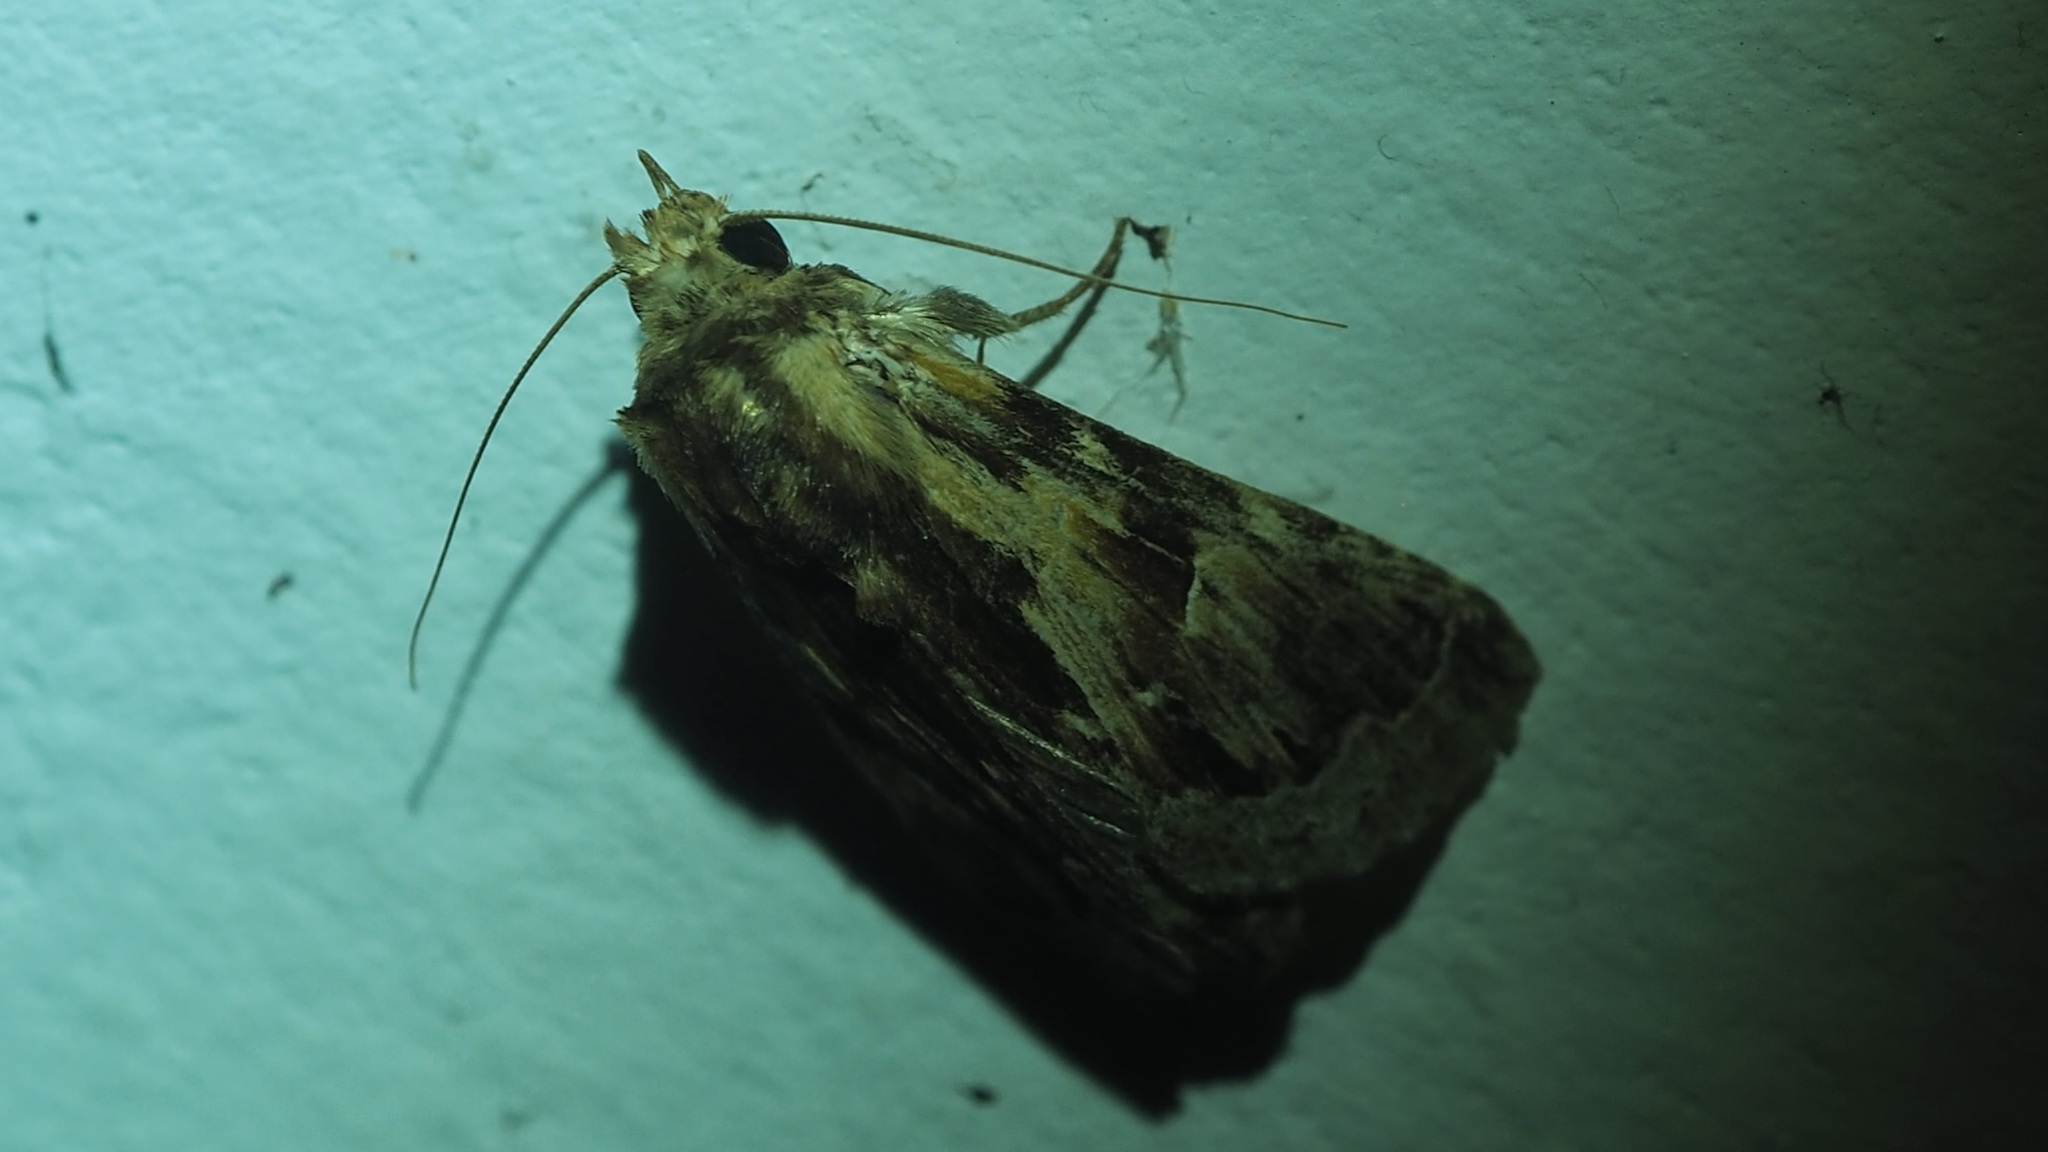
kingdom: Animalia
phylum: Arthropoda
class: Insecta
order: Lepidoptera
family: Notodontidae
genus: Lemairegisa
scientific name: Lemairegisa Lepasta mixta
